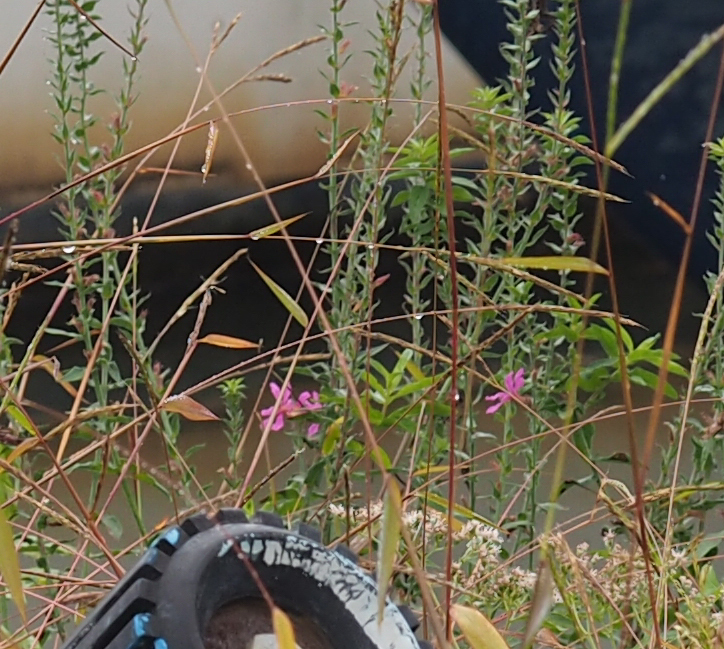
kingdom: Plantae
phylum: Tracheophyta
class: Magnoliopsida
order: Myrtales
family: Lythraceae
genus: Lythrum
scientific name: Lythrum salicaria
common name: Purple loosestrife
